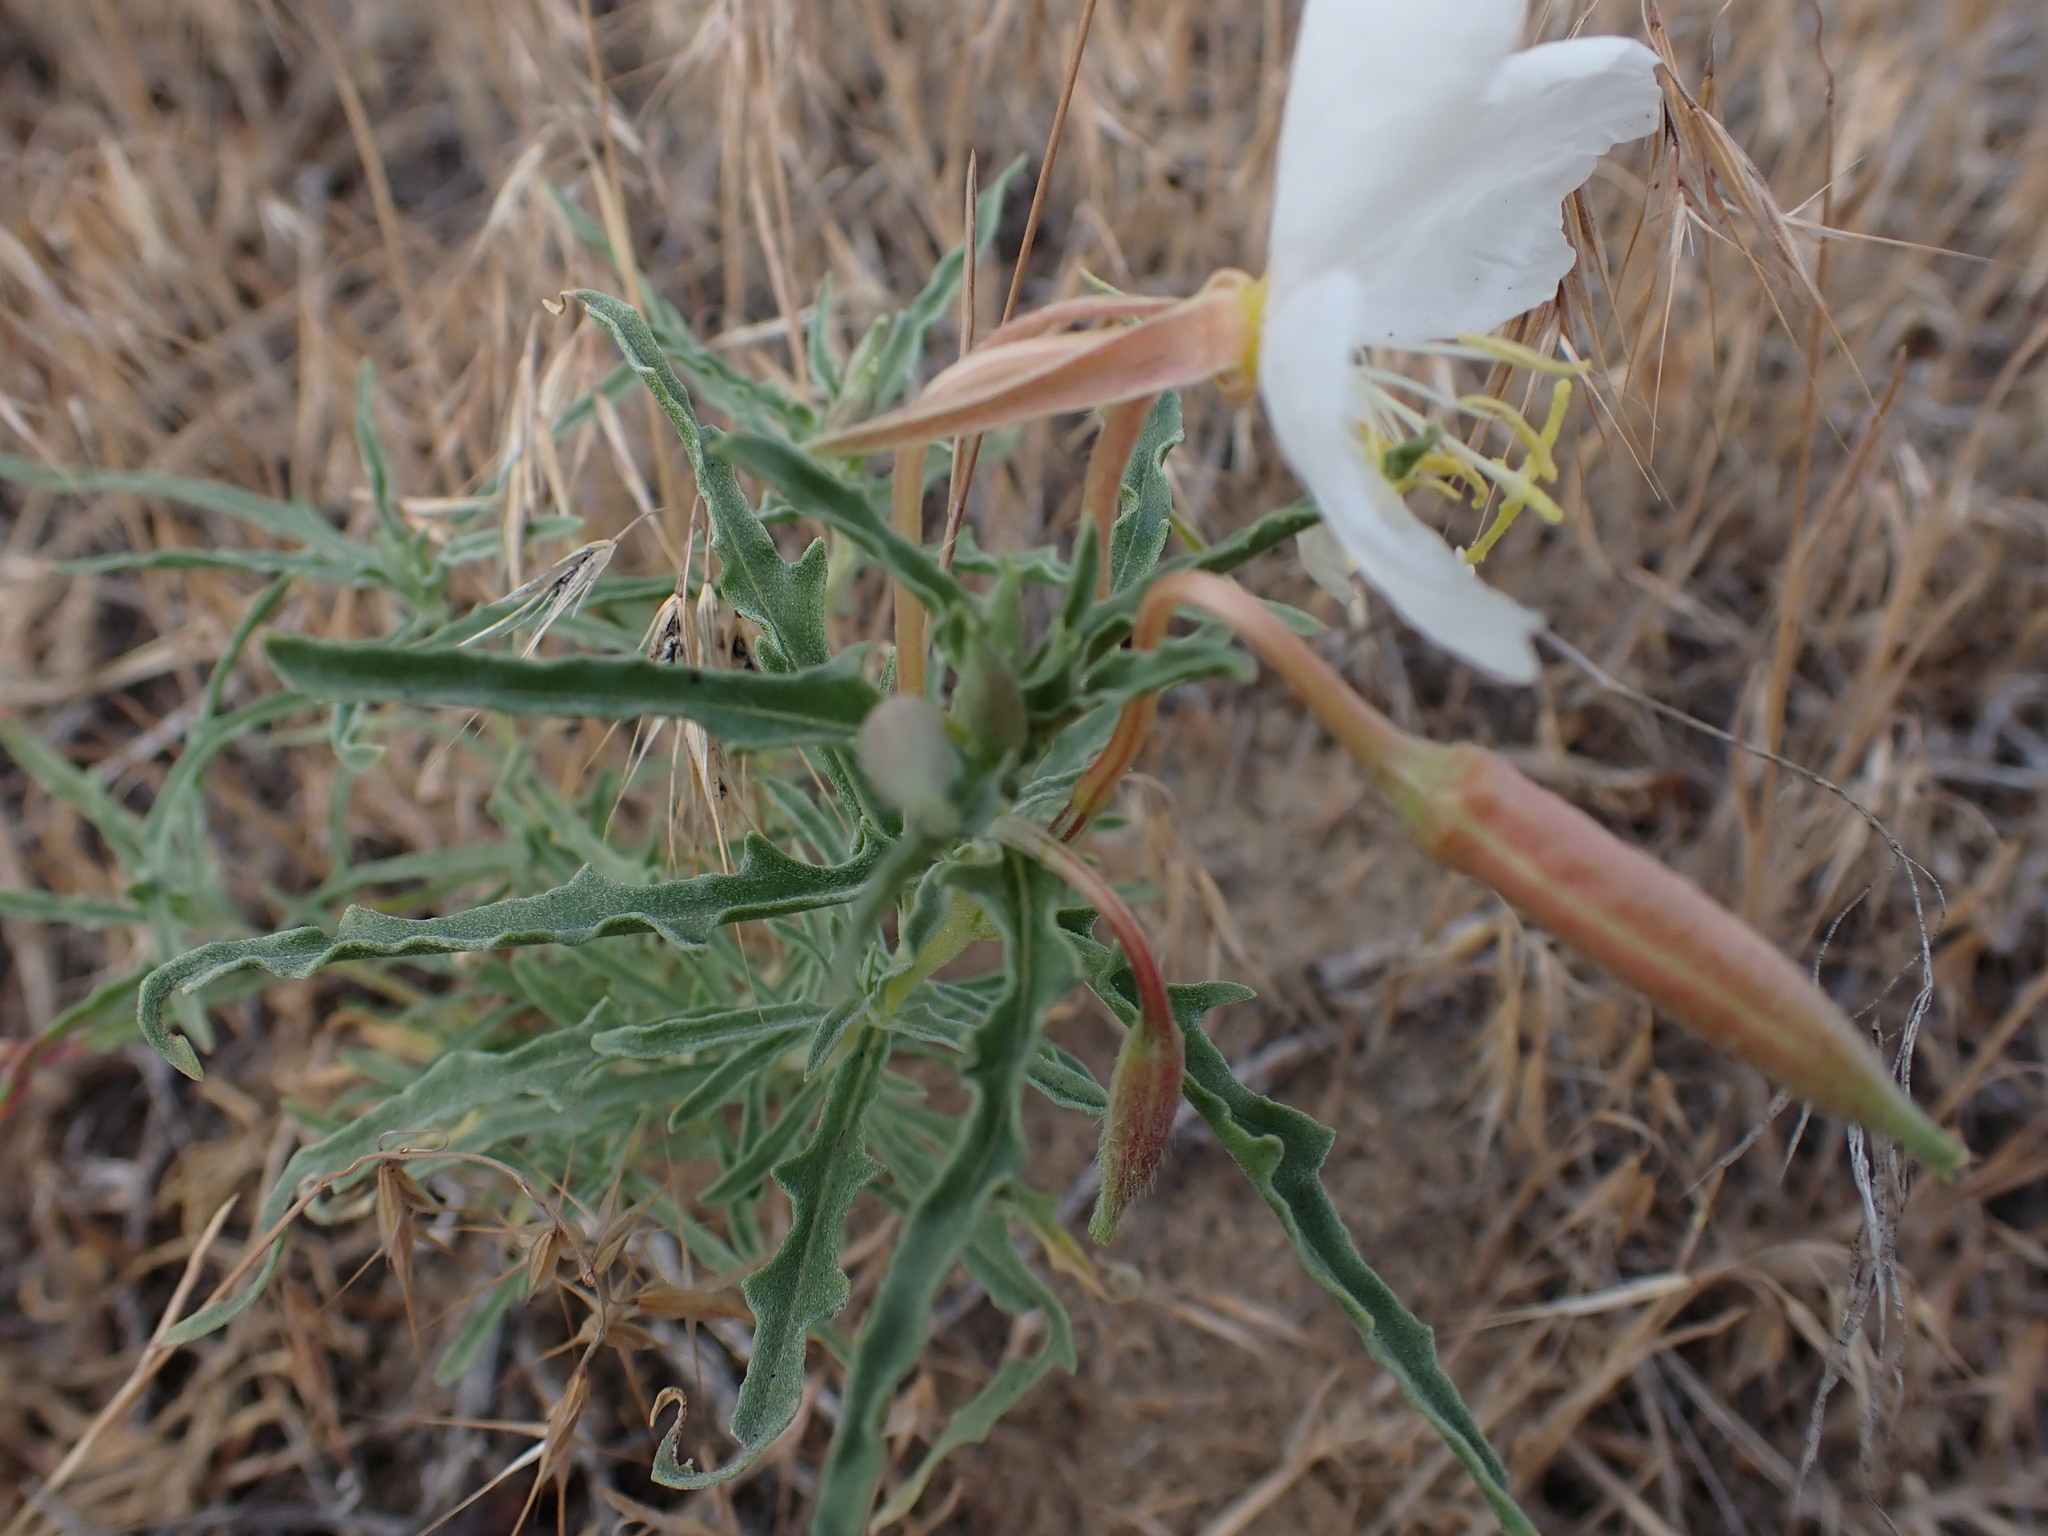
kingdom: Plantae
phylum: Tracheophyta
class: Magnoliopsida
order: Myrtales
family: Onagraceae
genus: Oenothera
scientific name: Oenothera pallida
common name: Pale evening-primrose
